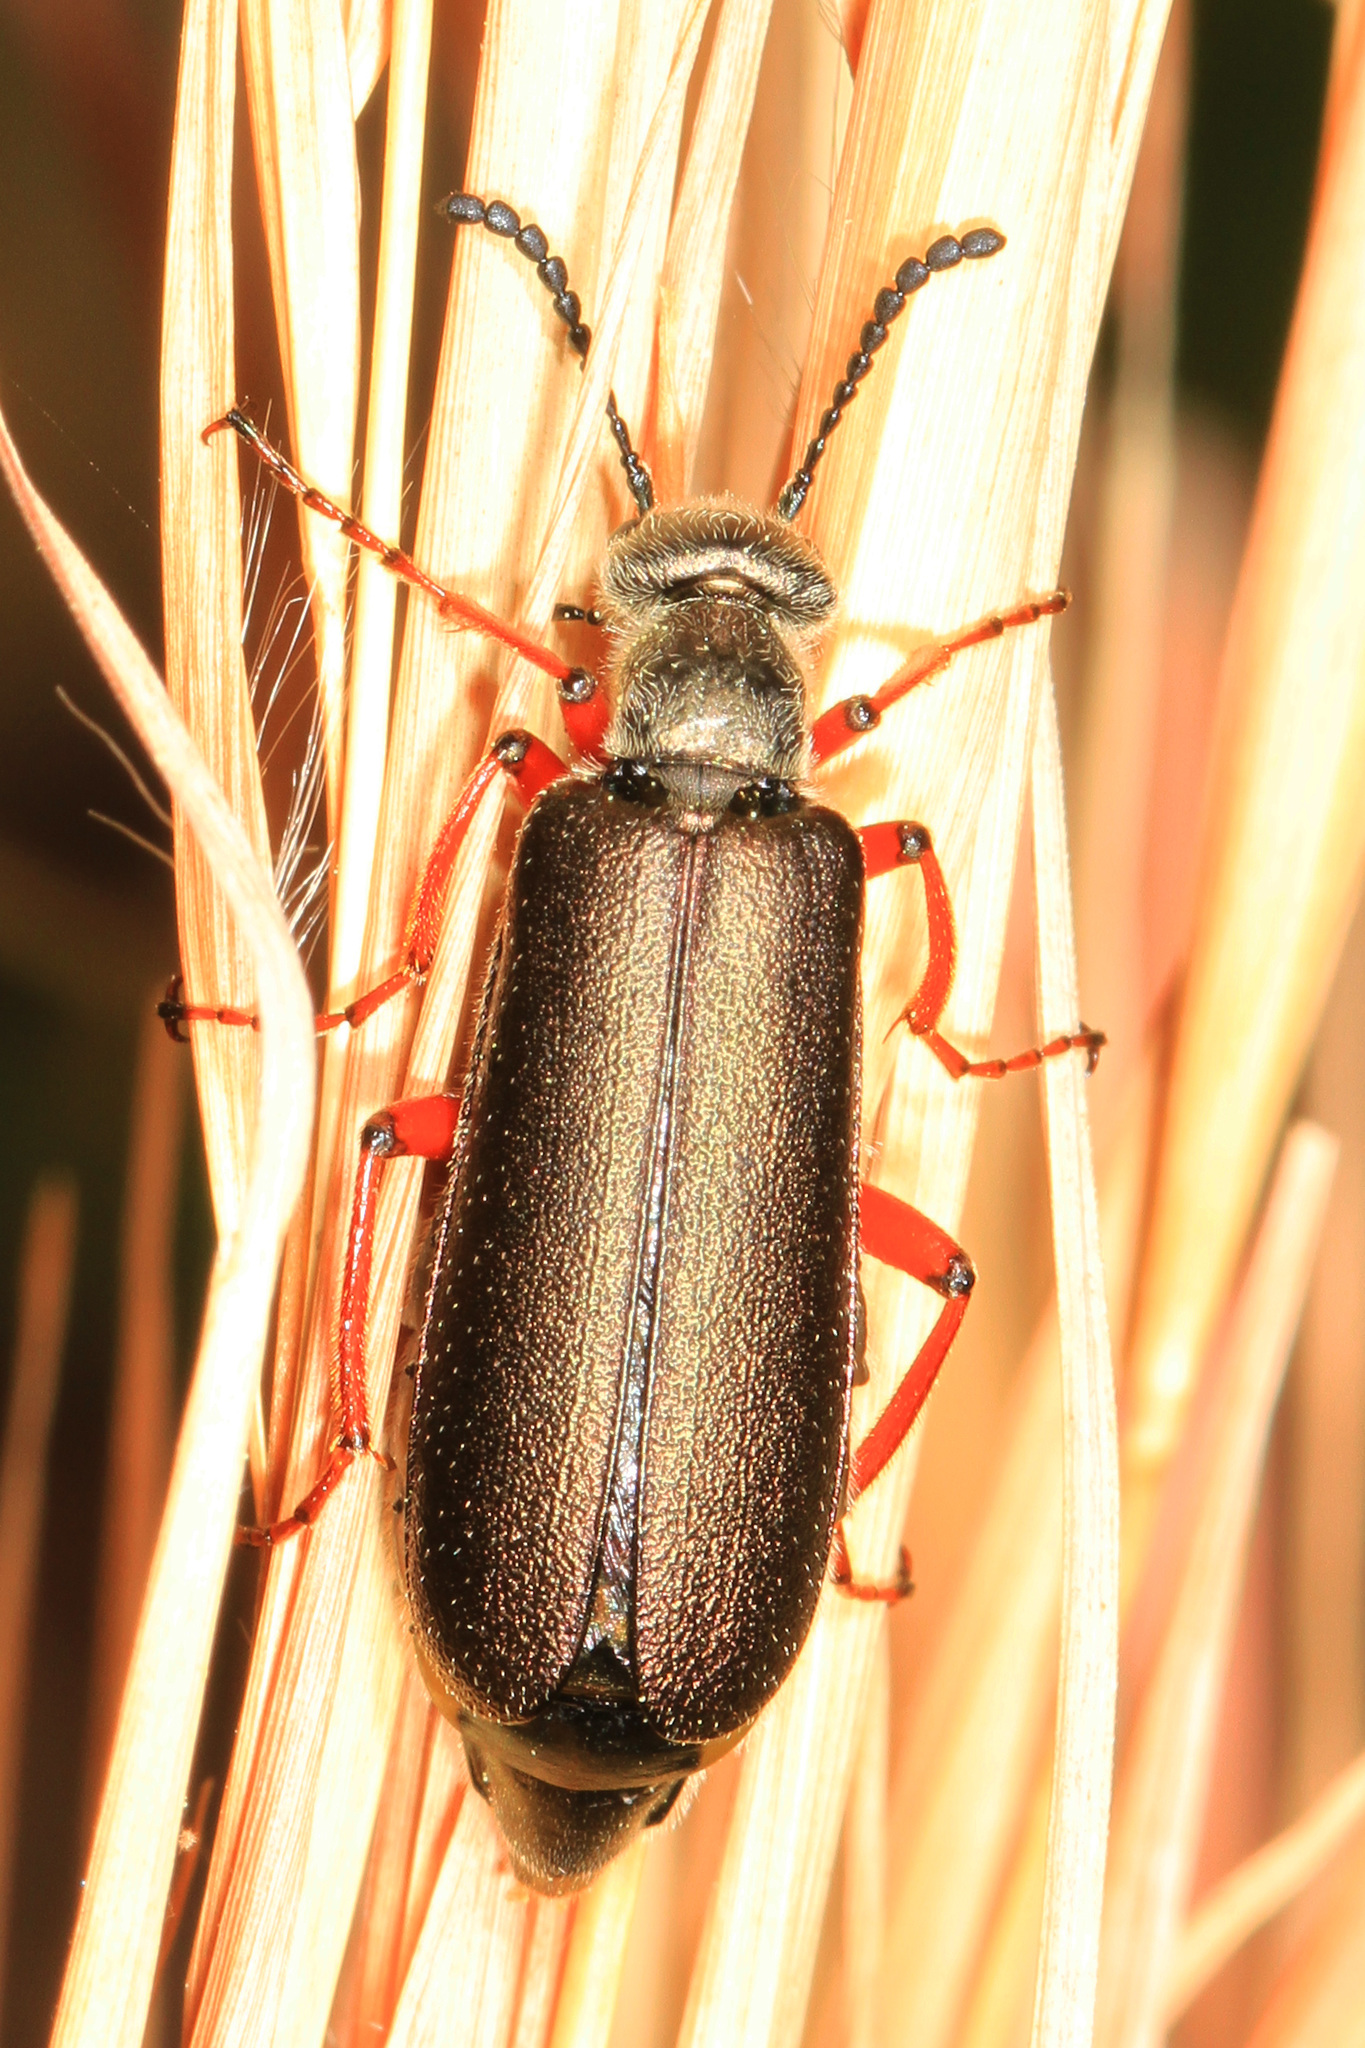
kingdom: Animalia
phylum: Arthropoda
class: Insecta
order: Coleoptera
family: Meloidae
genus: Lytta
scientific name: Lytta aenea
